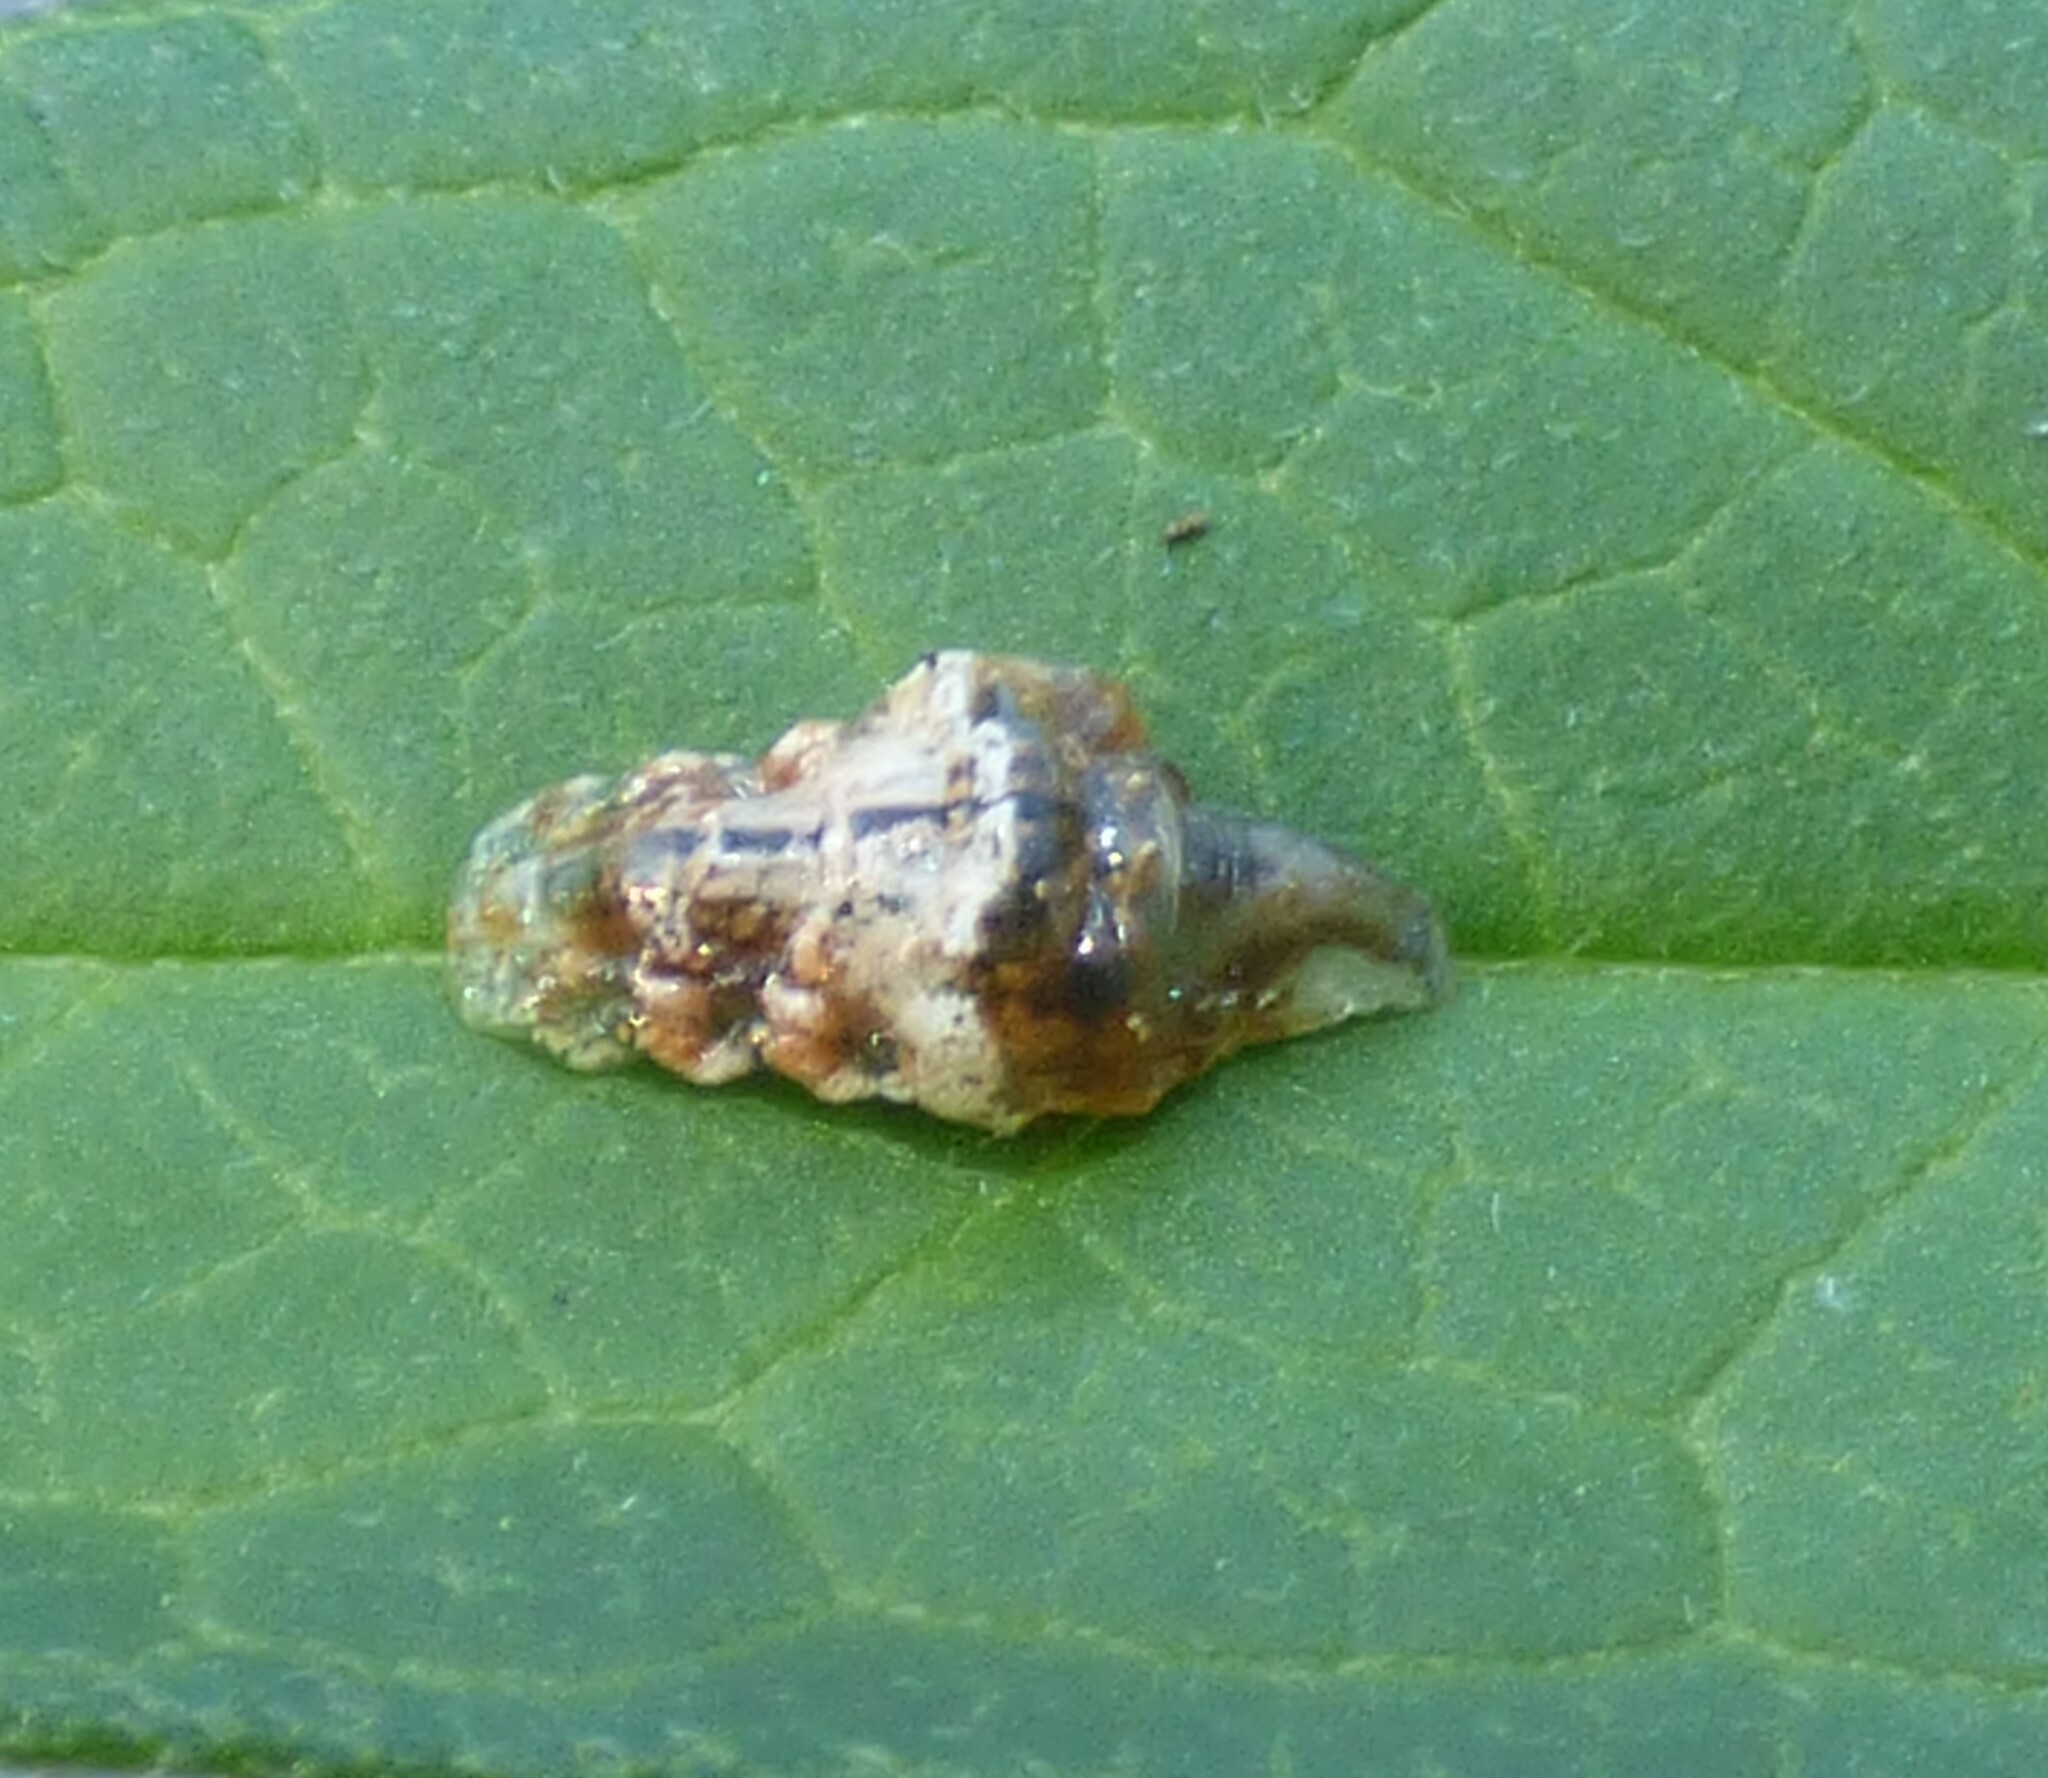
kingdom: Animalia
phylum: Arthropoda
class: Insecta
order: Diptera
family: Syrphidae
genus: Ocyptamus
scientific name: Ocyptamus fuscipennis
